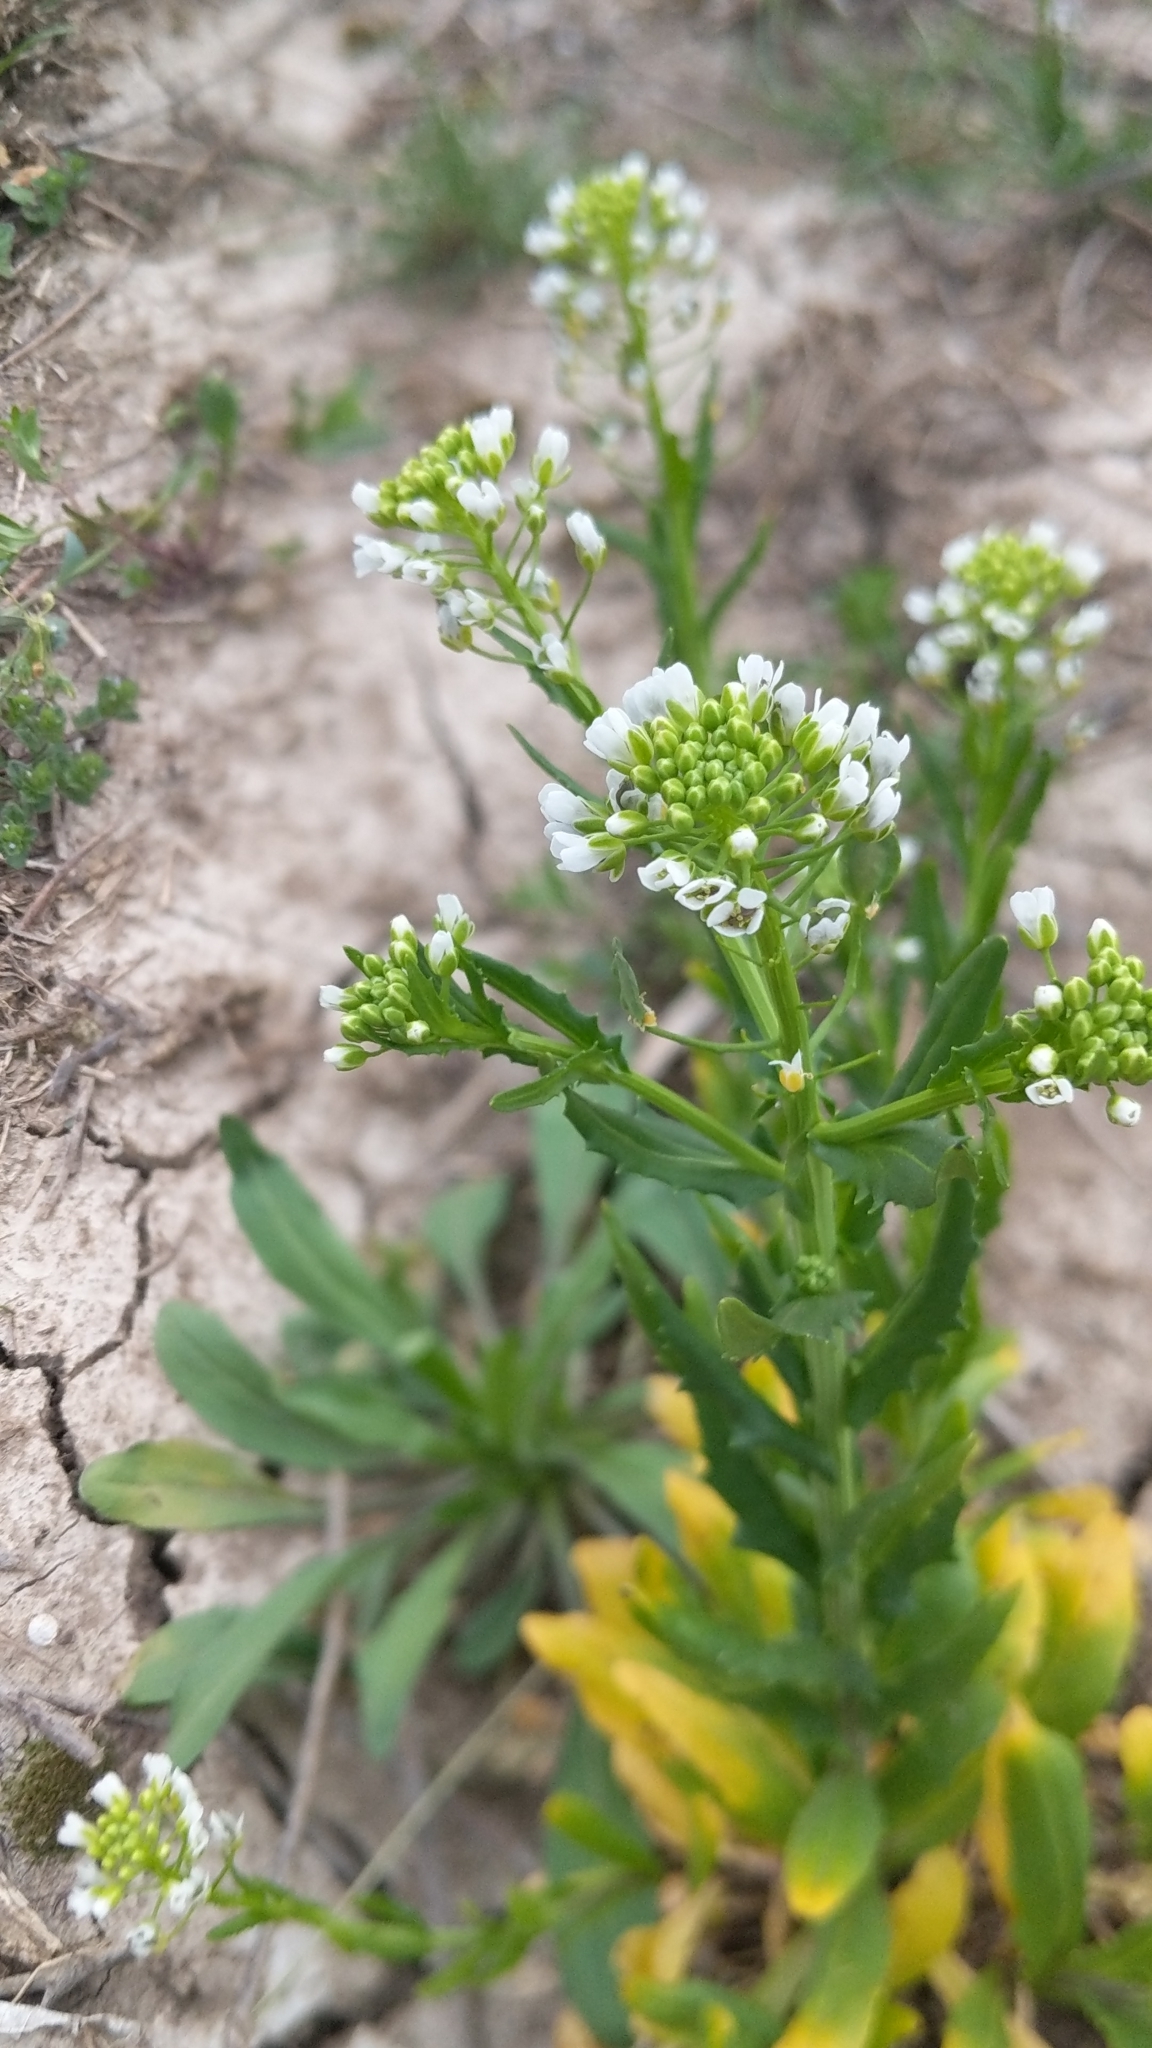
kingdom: Plantae
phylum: Tracheophyta
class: Magnoliopsida
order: Brassicales
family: Brassicaceae
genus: Thlaspi
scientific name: Thlaspi arvense
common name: Field pennycress
